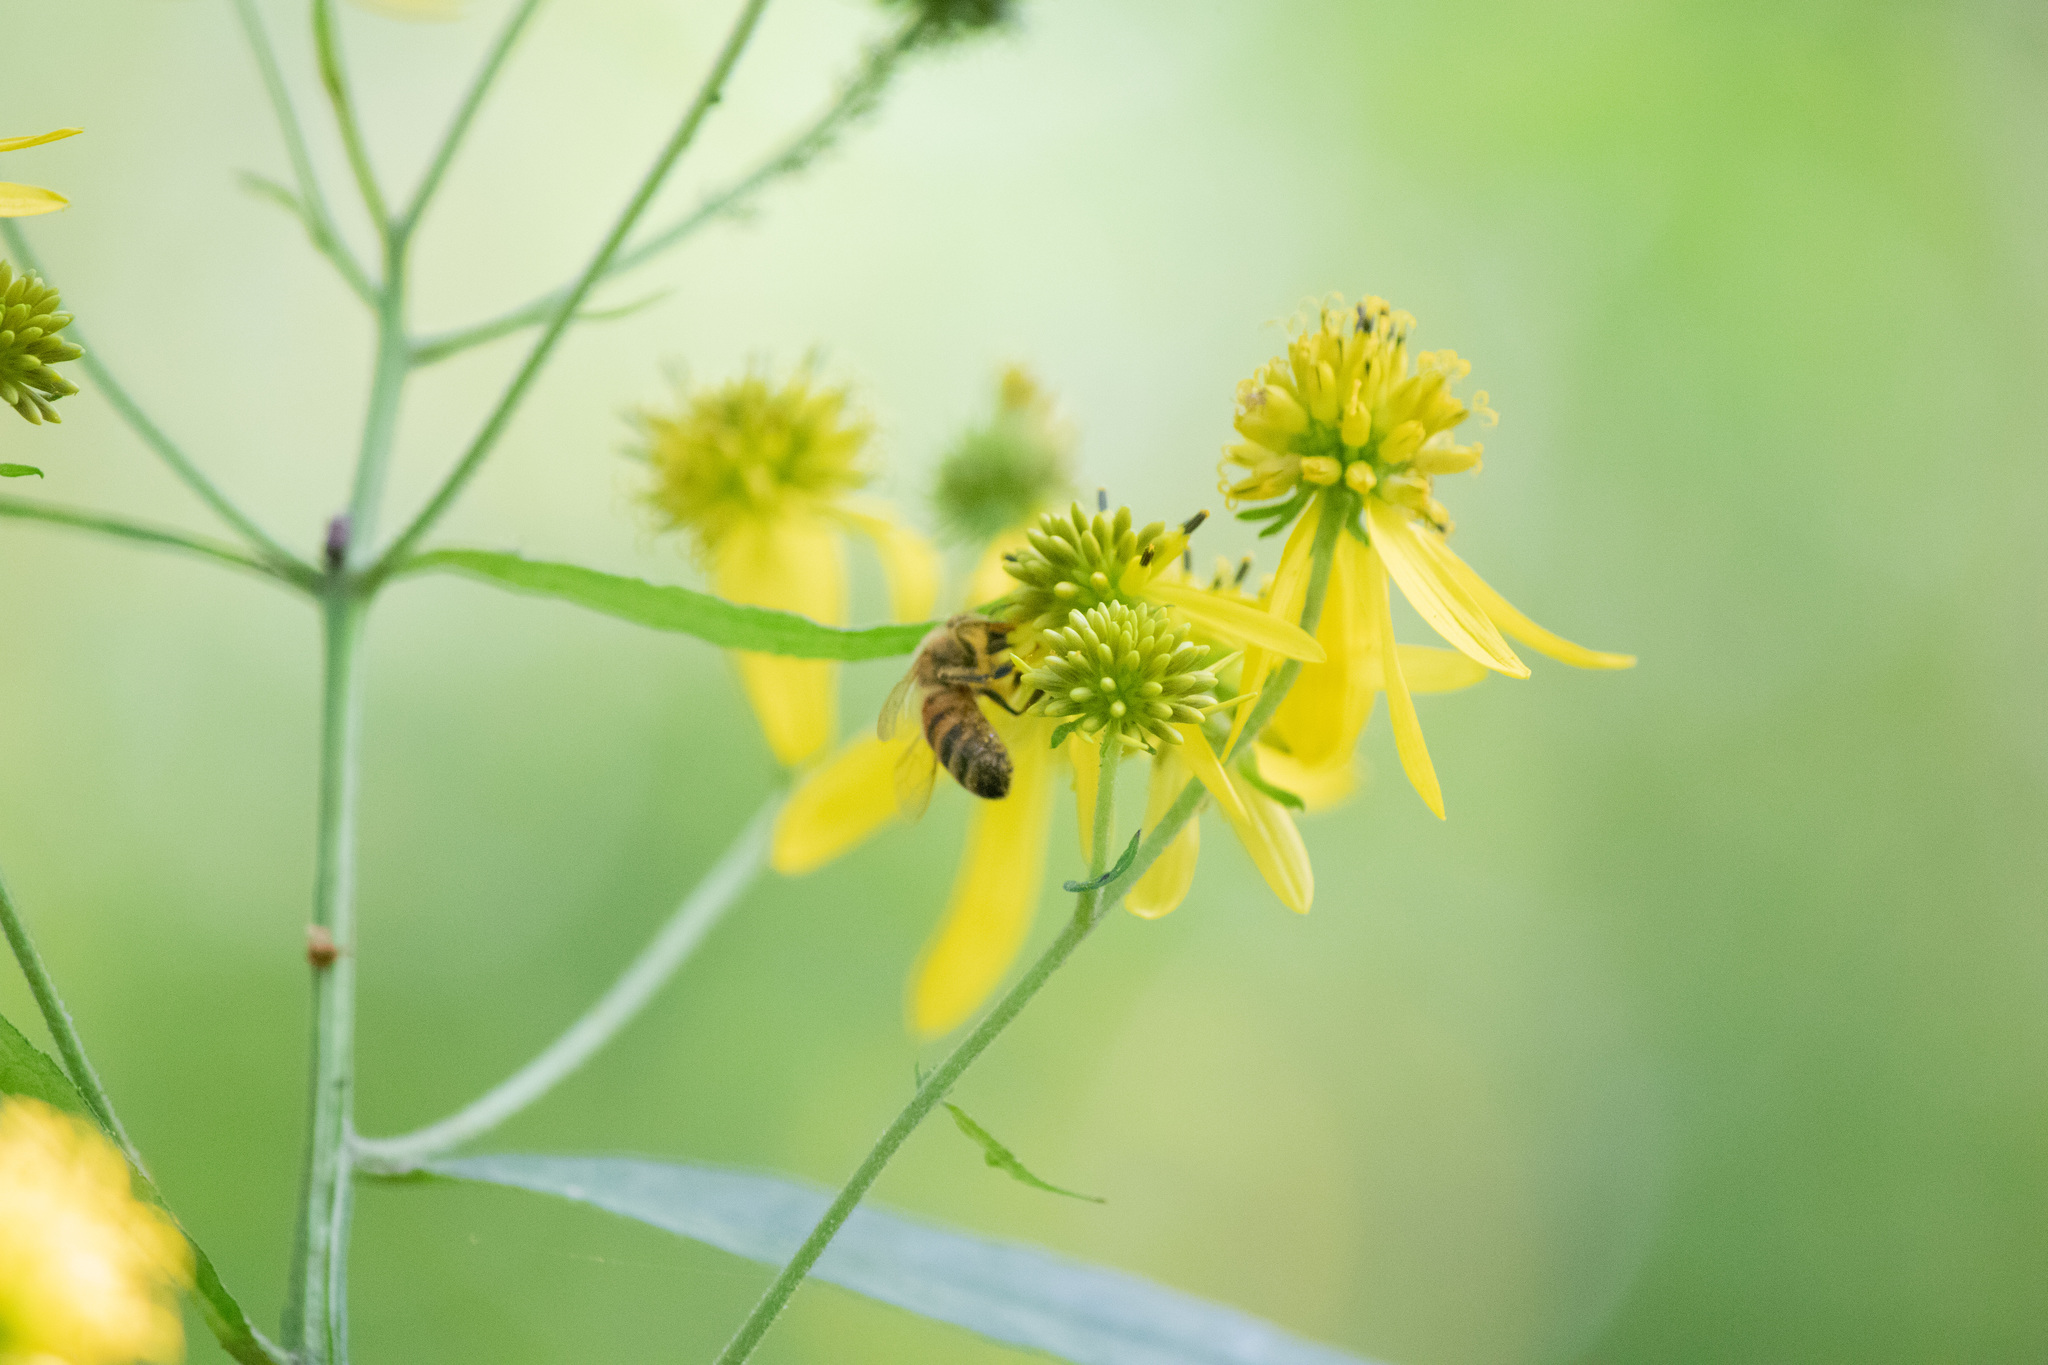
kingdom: Animalia
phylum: Arthropoda
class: Insecta
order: Hymenoptera
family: Apidae
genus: Apis
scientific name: Apis mellifera
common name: Honey bee
